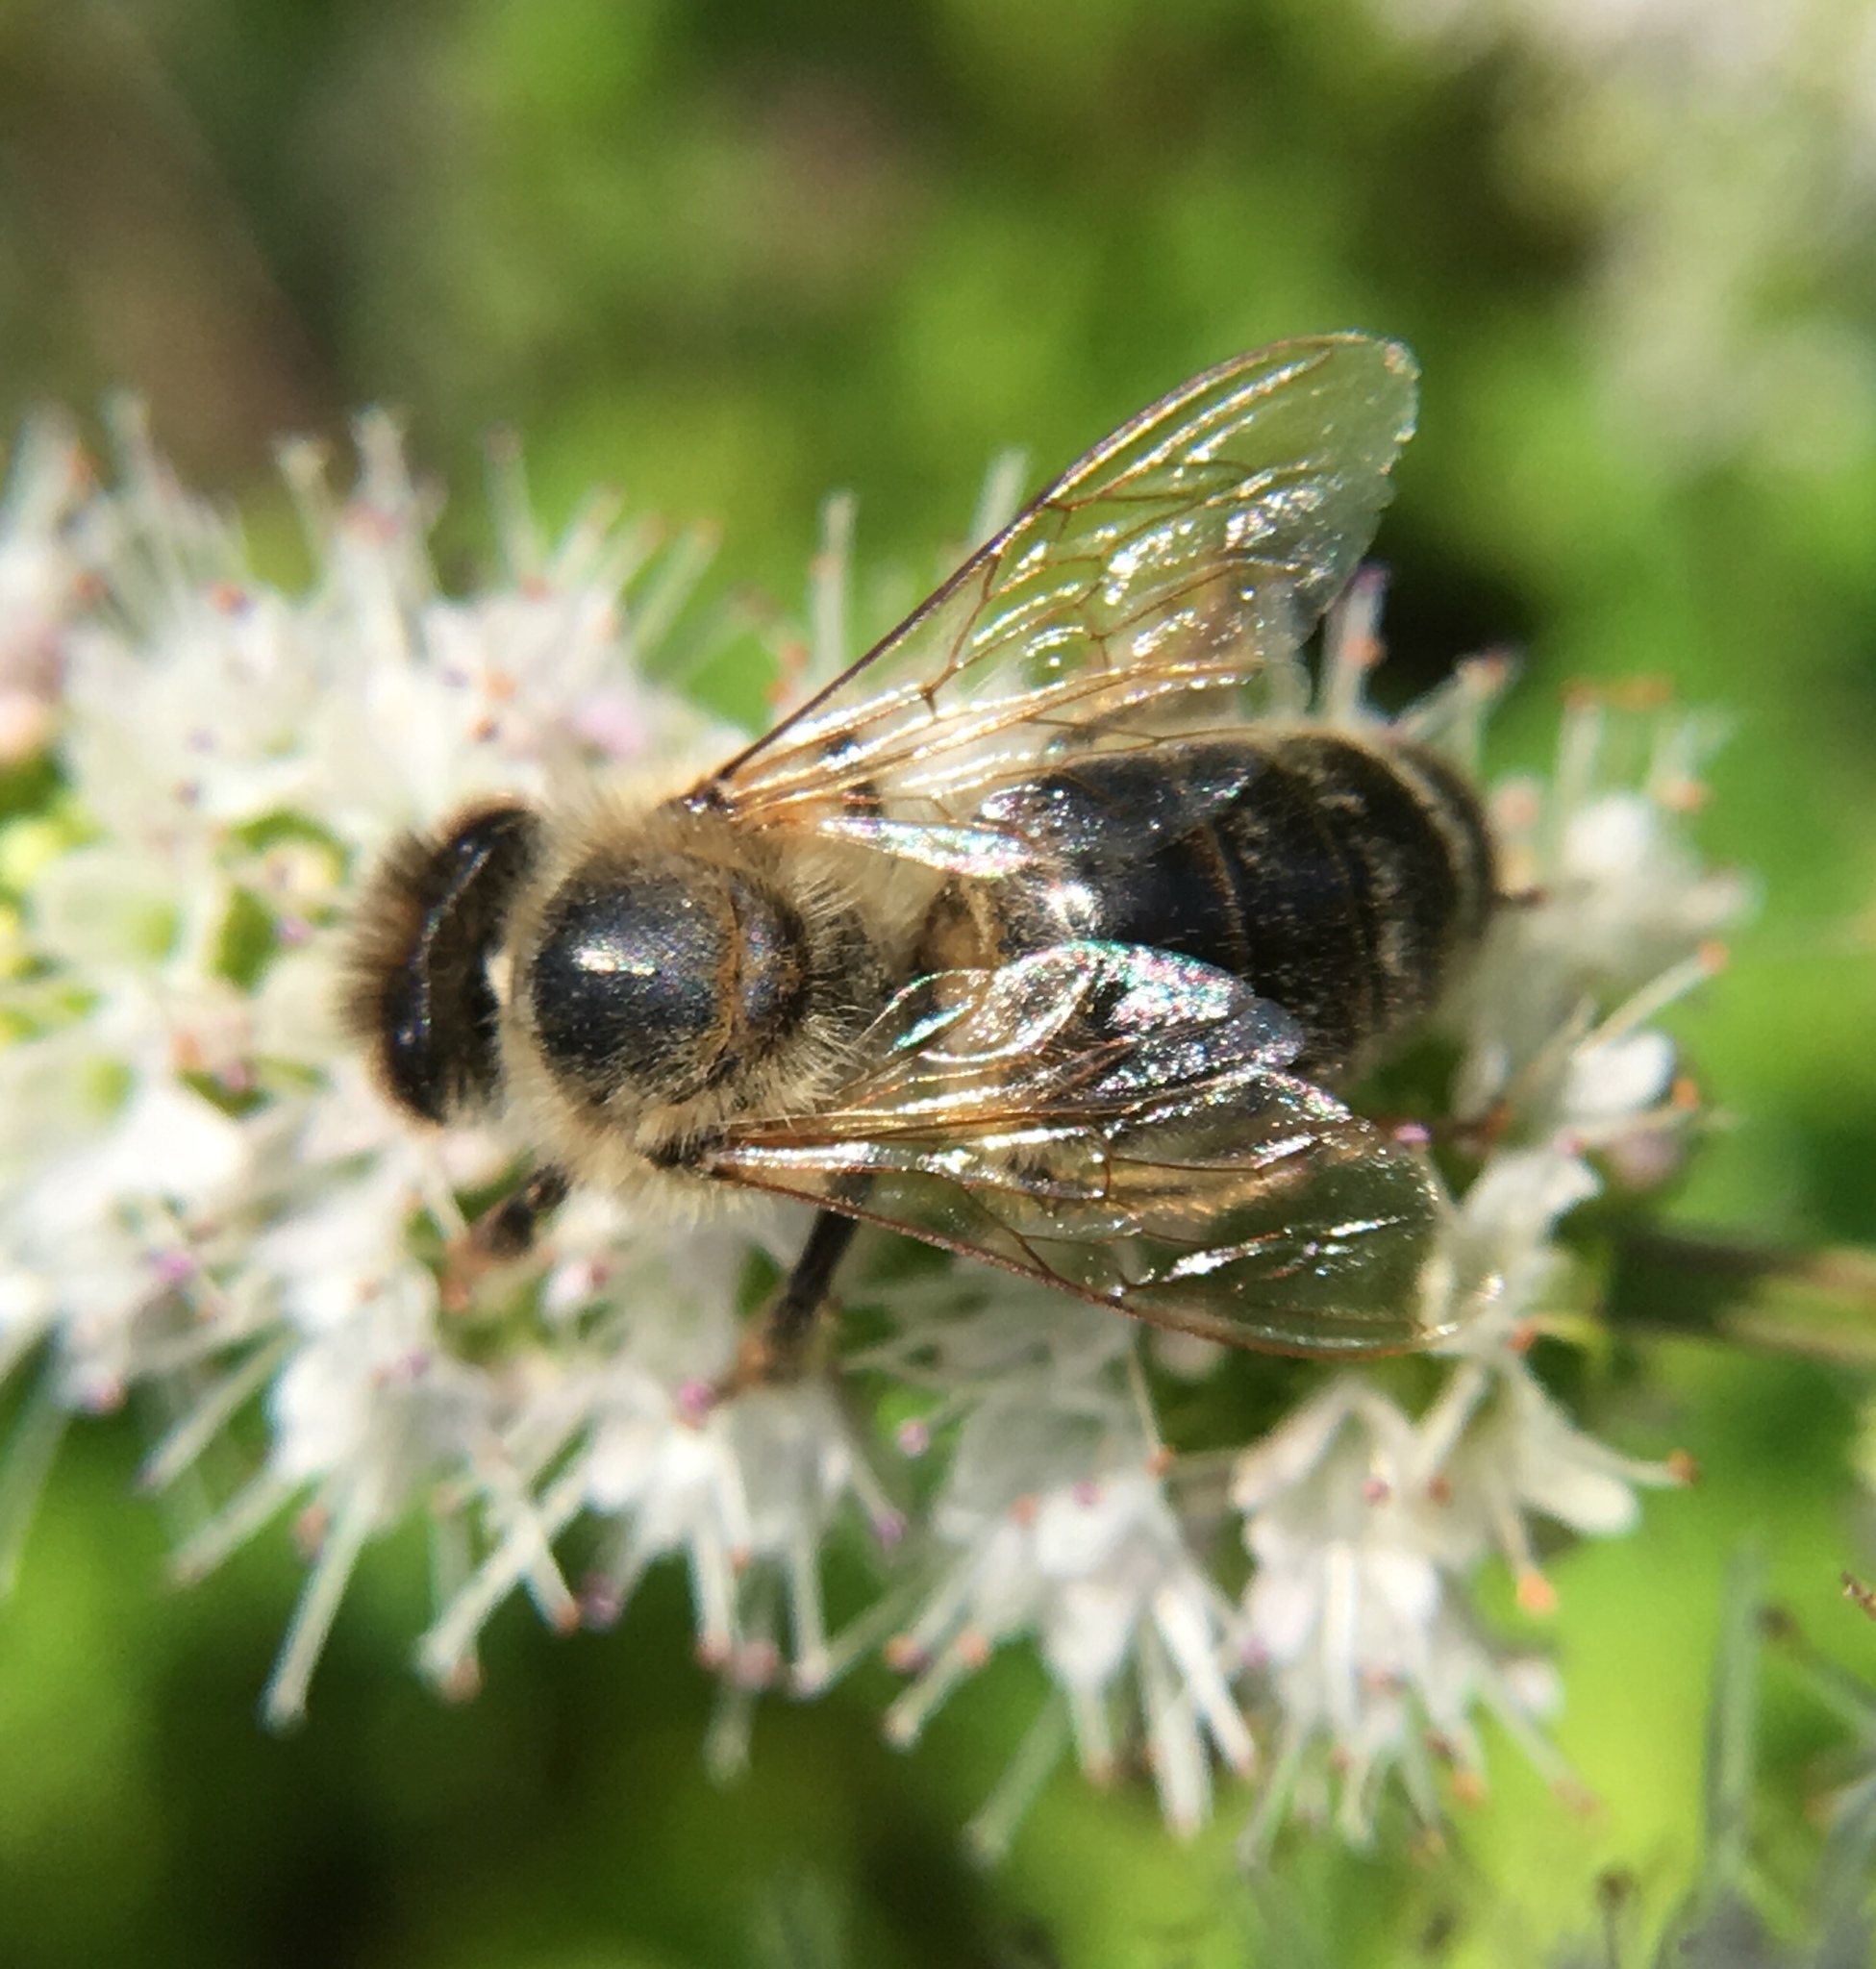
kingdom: Animalia
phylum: Arthropoda
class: Insecta
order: Hymenoptera
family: Apidae
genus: Apis
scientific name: Apis mellifera
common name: Honey bee
